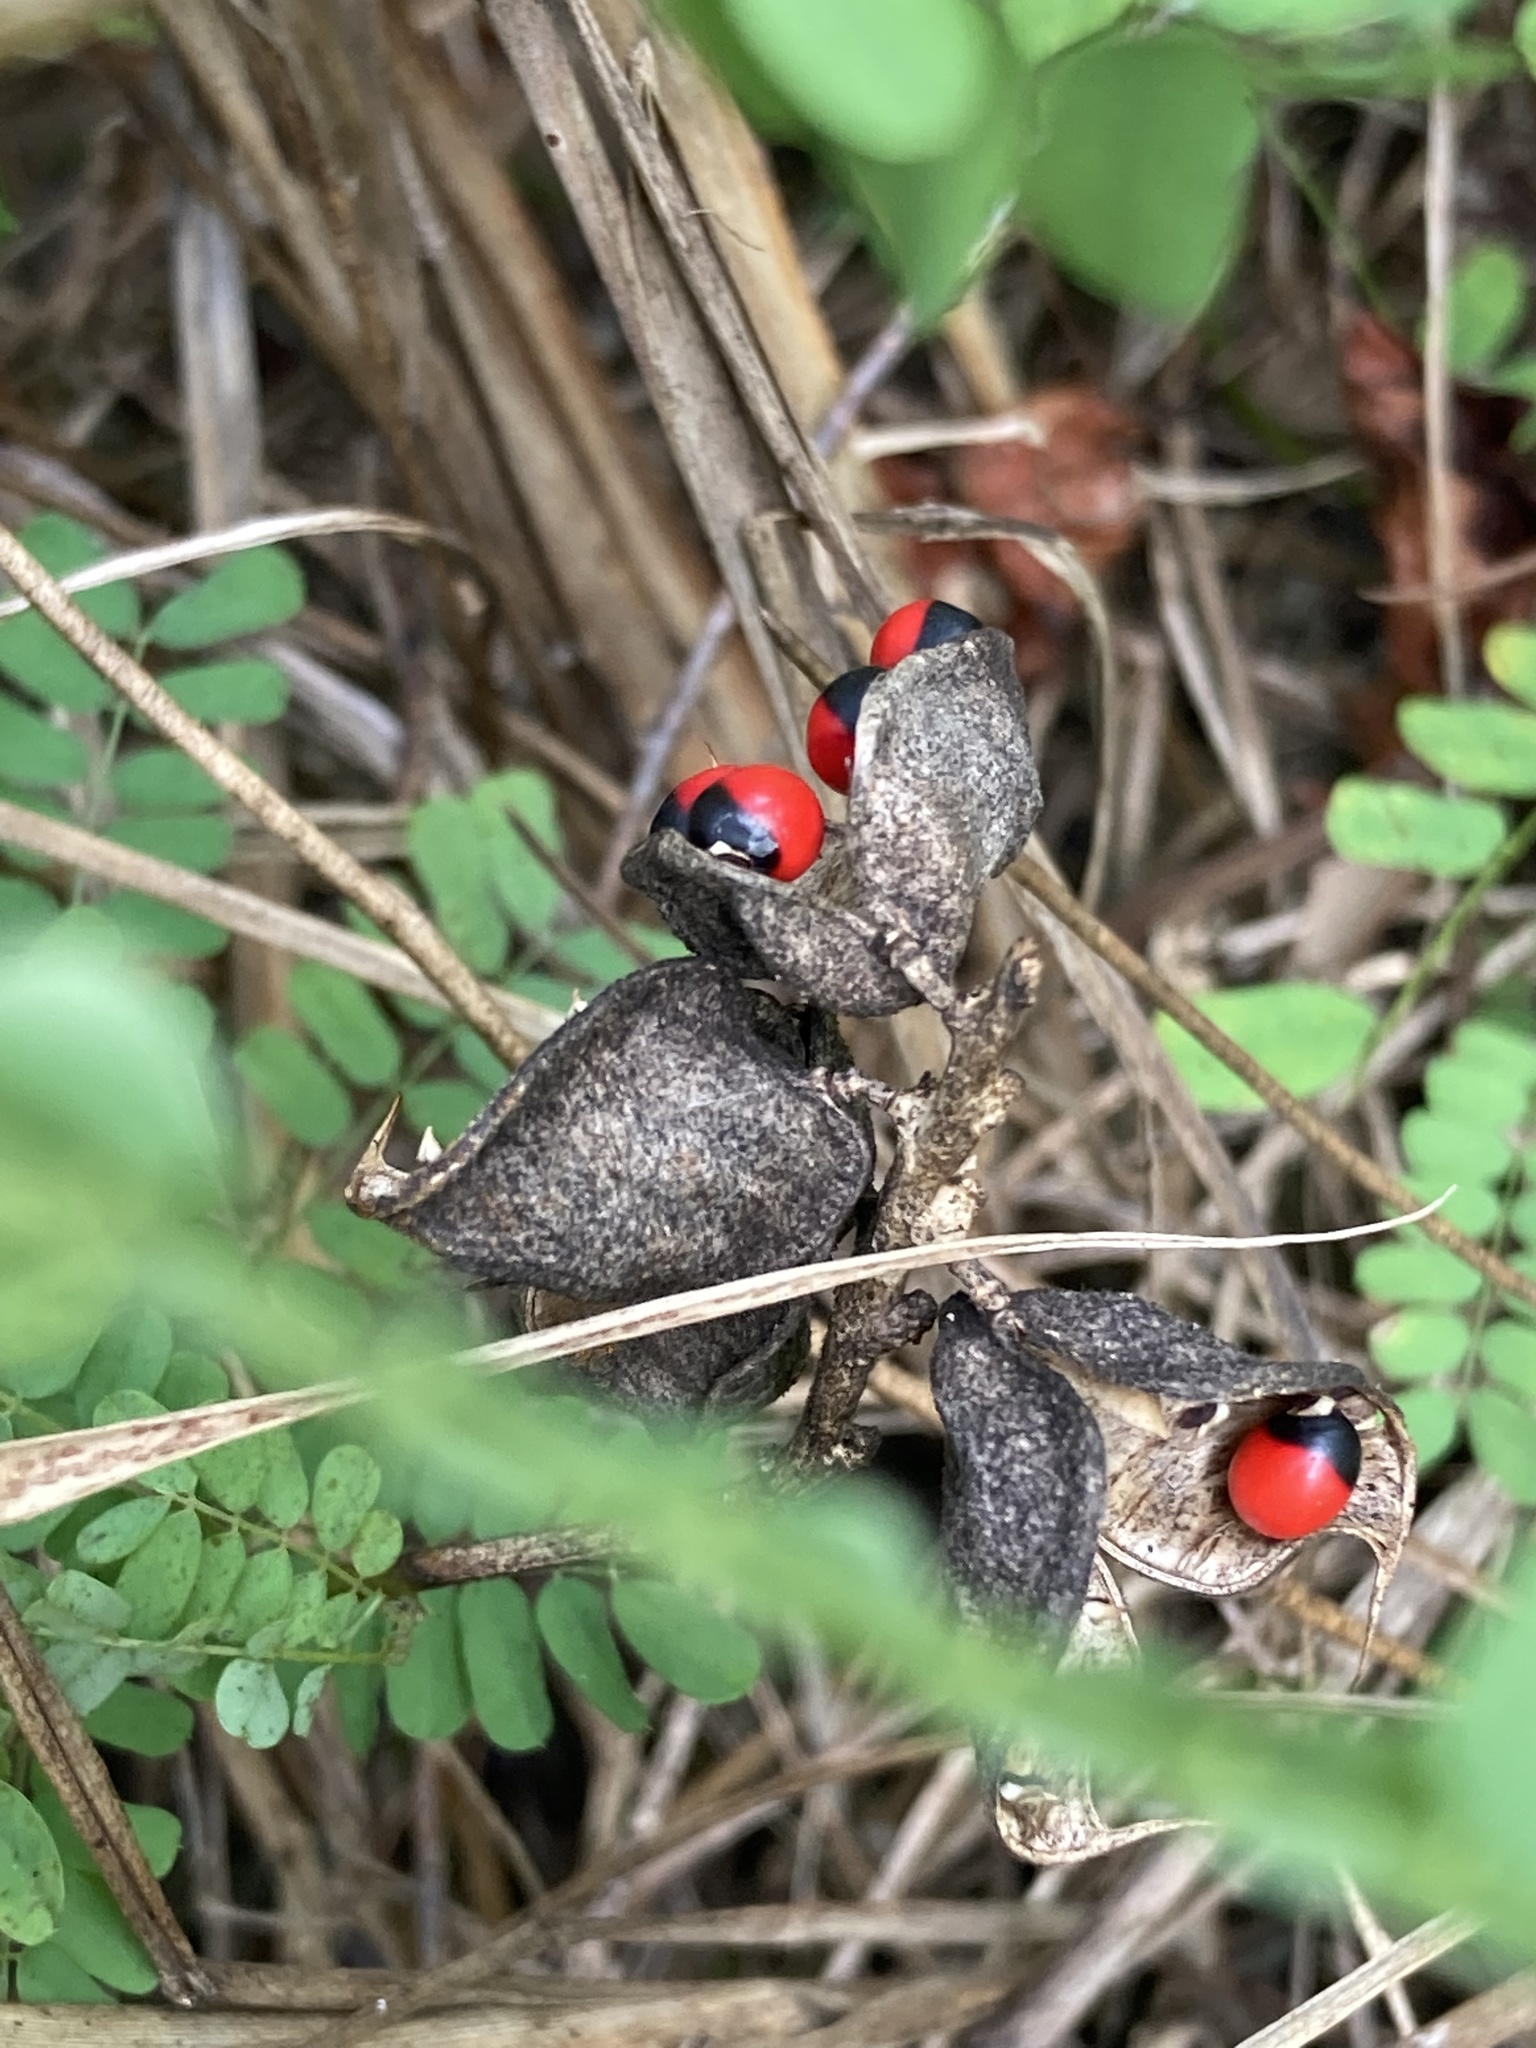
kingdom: Plantae
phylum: Tracheophyta
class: Magnoliopsida
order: Fabales
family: Fabaceae
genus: Abrus
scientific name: Abrus precatorius
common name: Rosarypea
